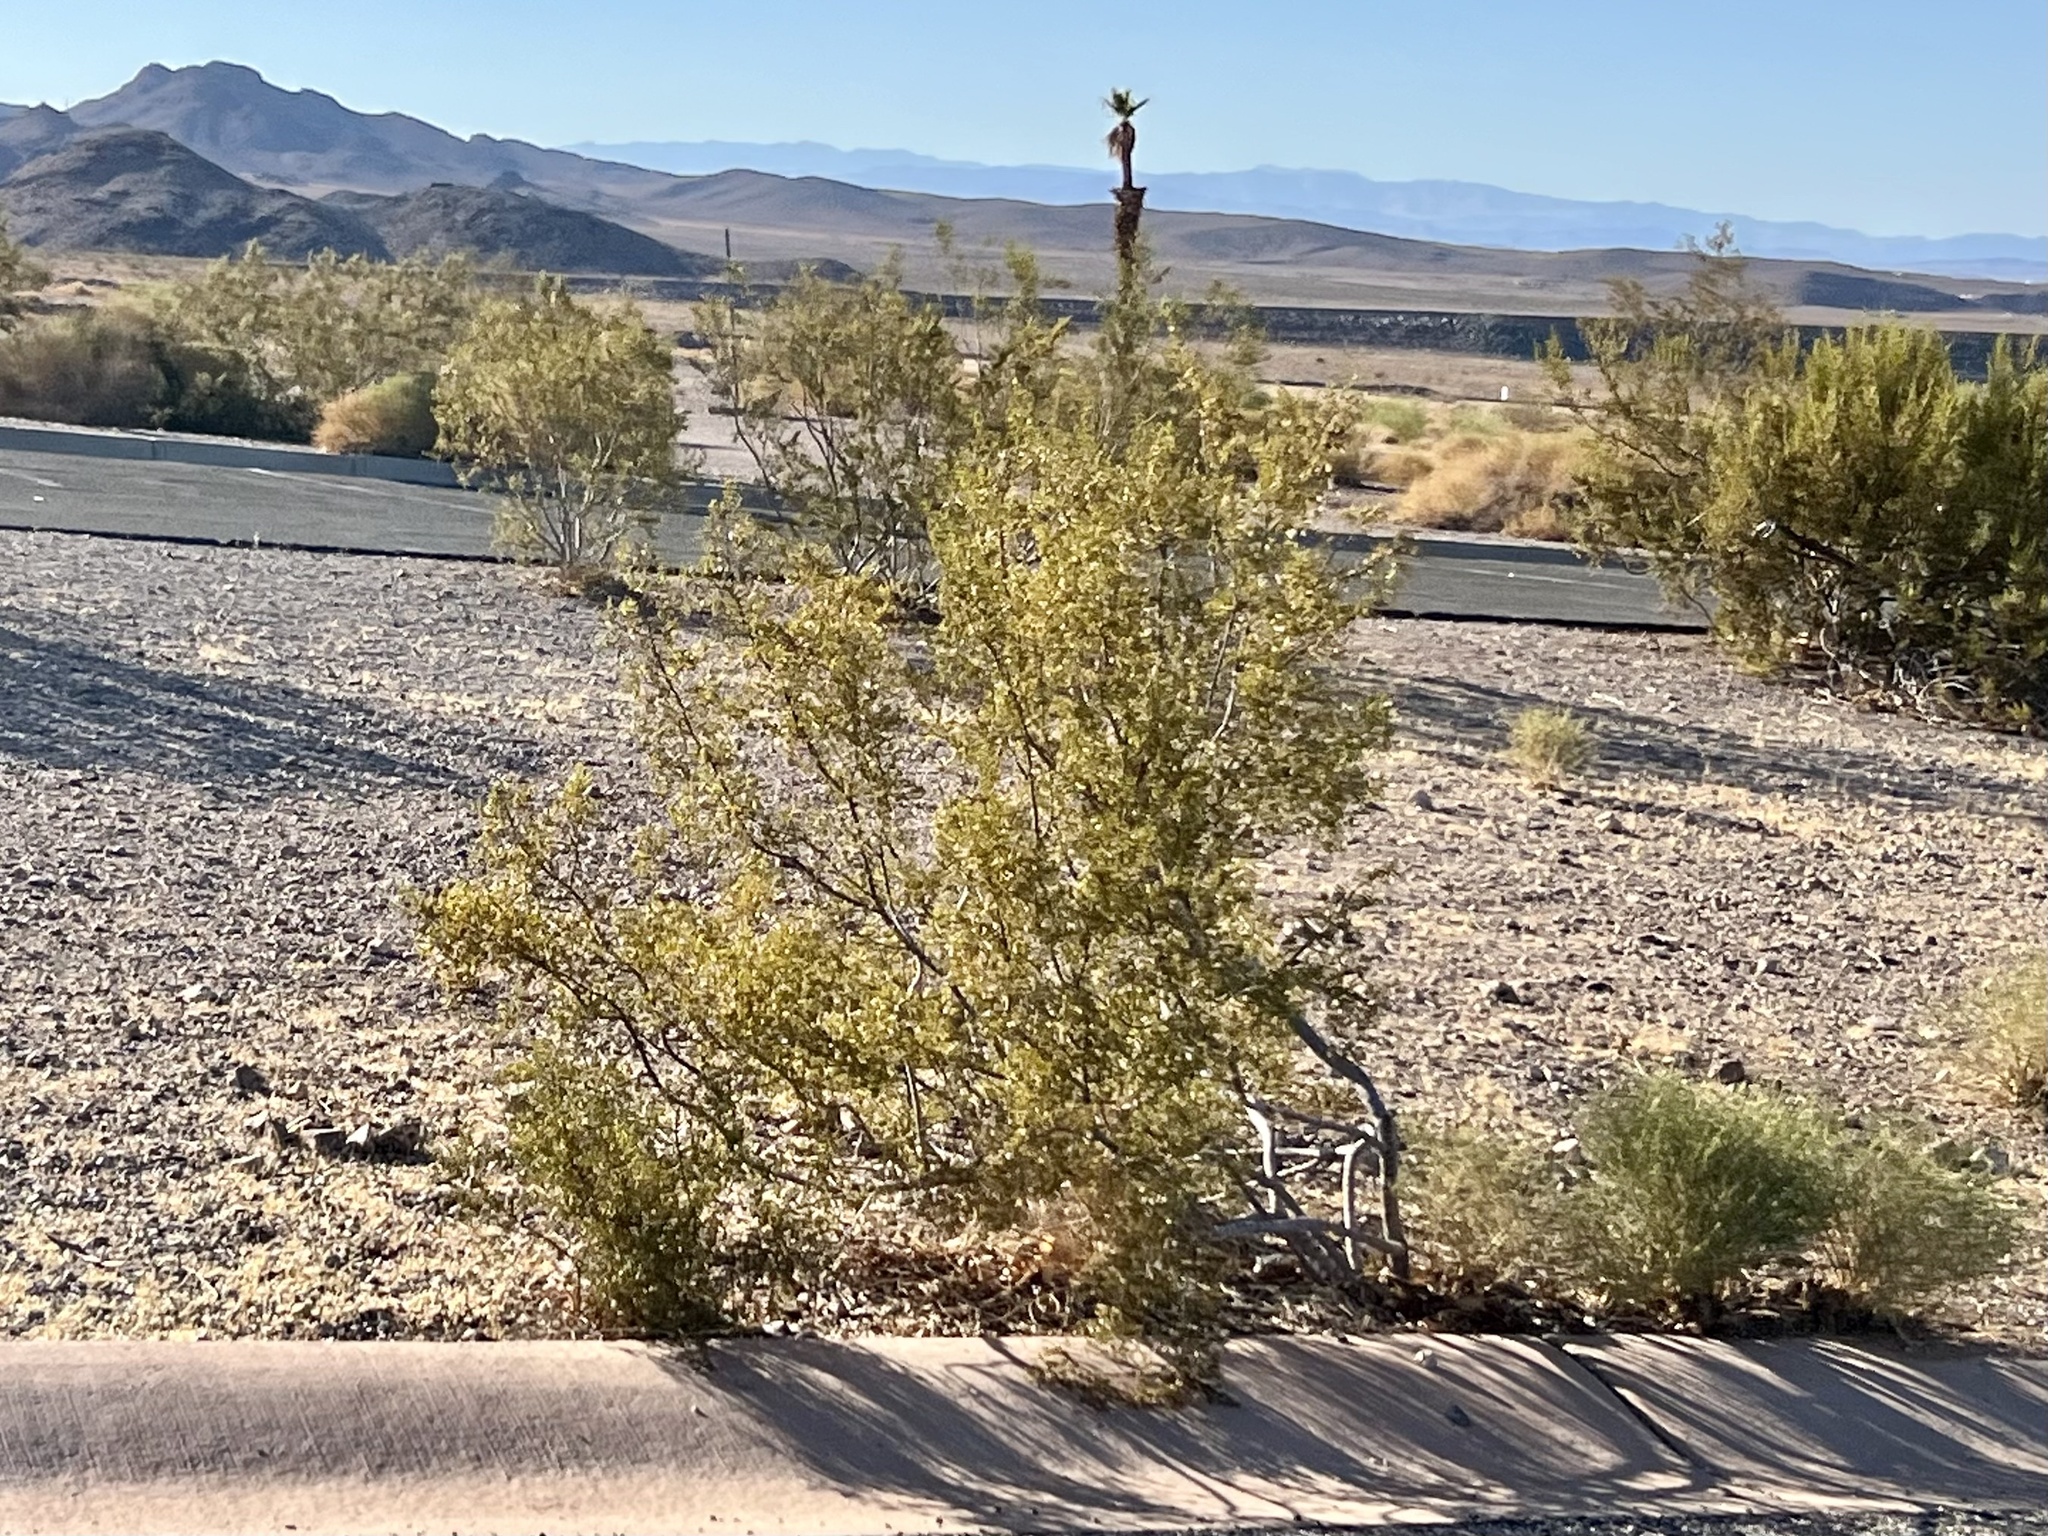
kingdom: Plantae
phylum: Tracheophyta
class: Magnoliopsida
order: Zygophyllales
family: Zygophyllaceae
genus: Larrea
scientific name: Larrea tridentata
